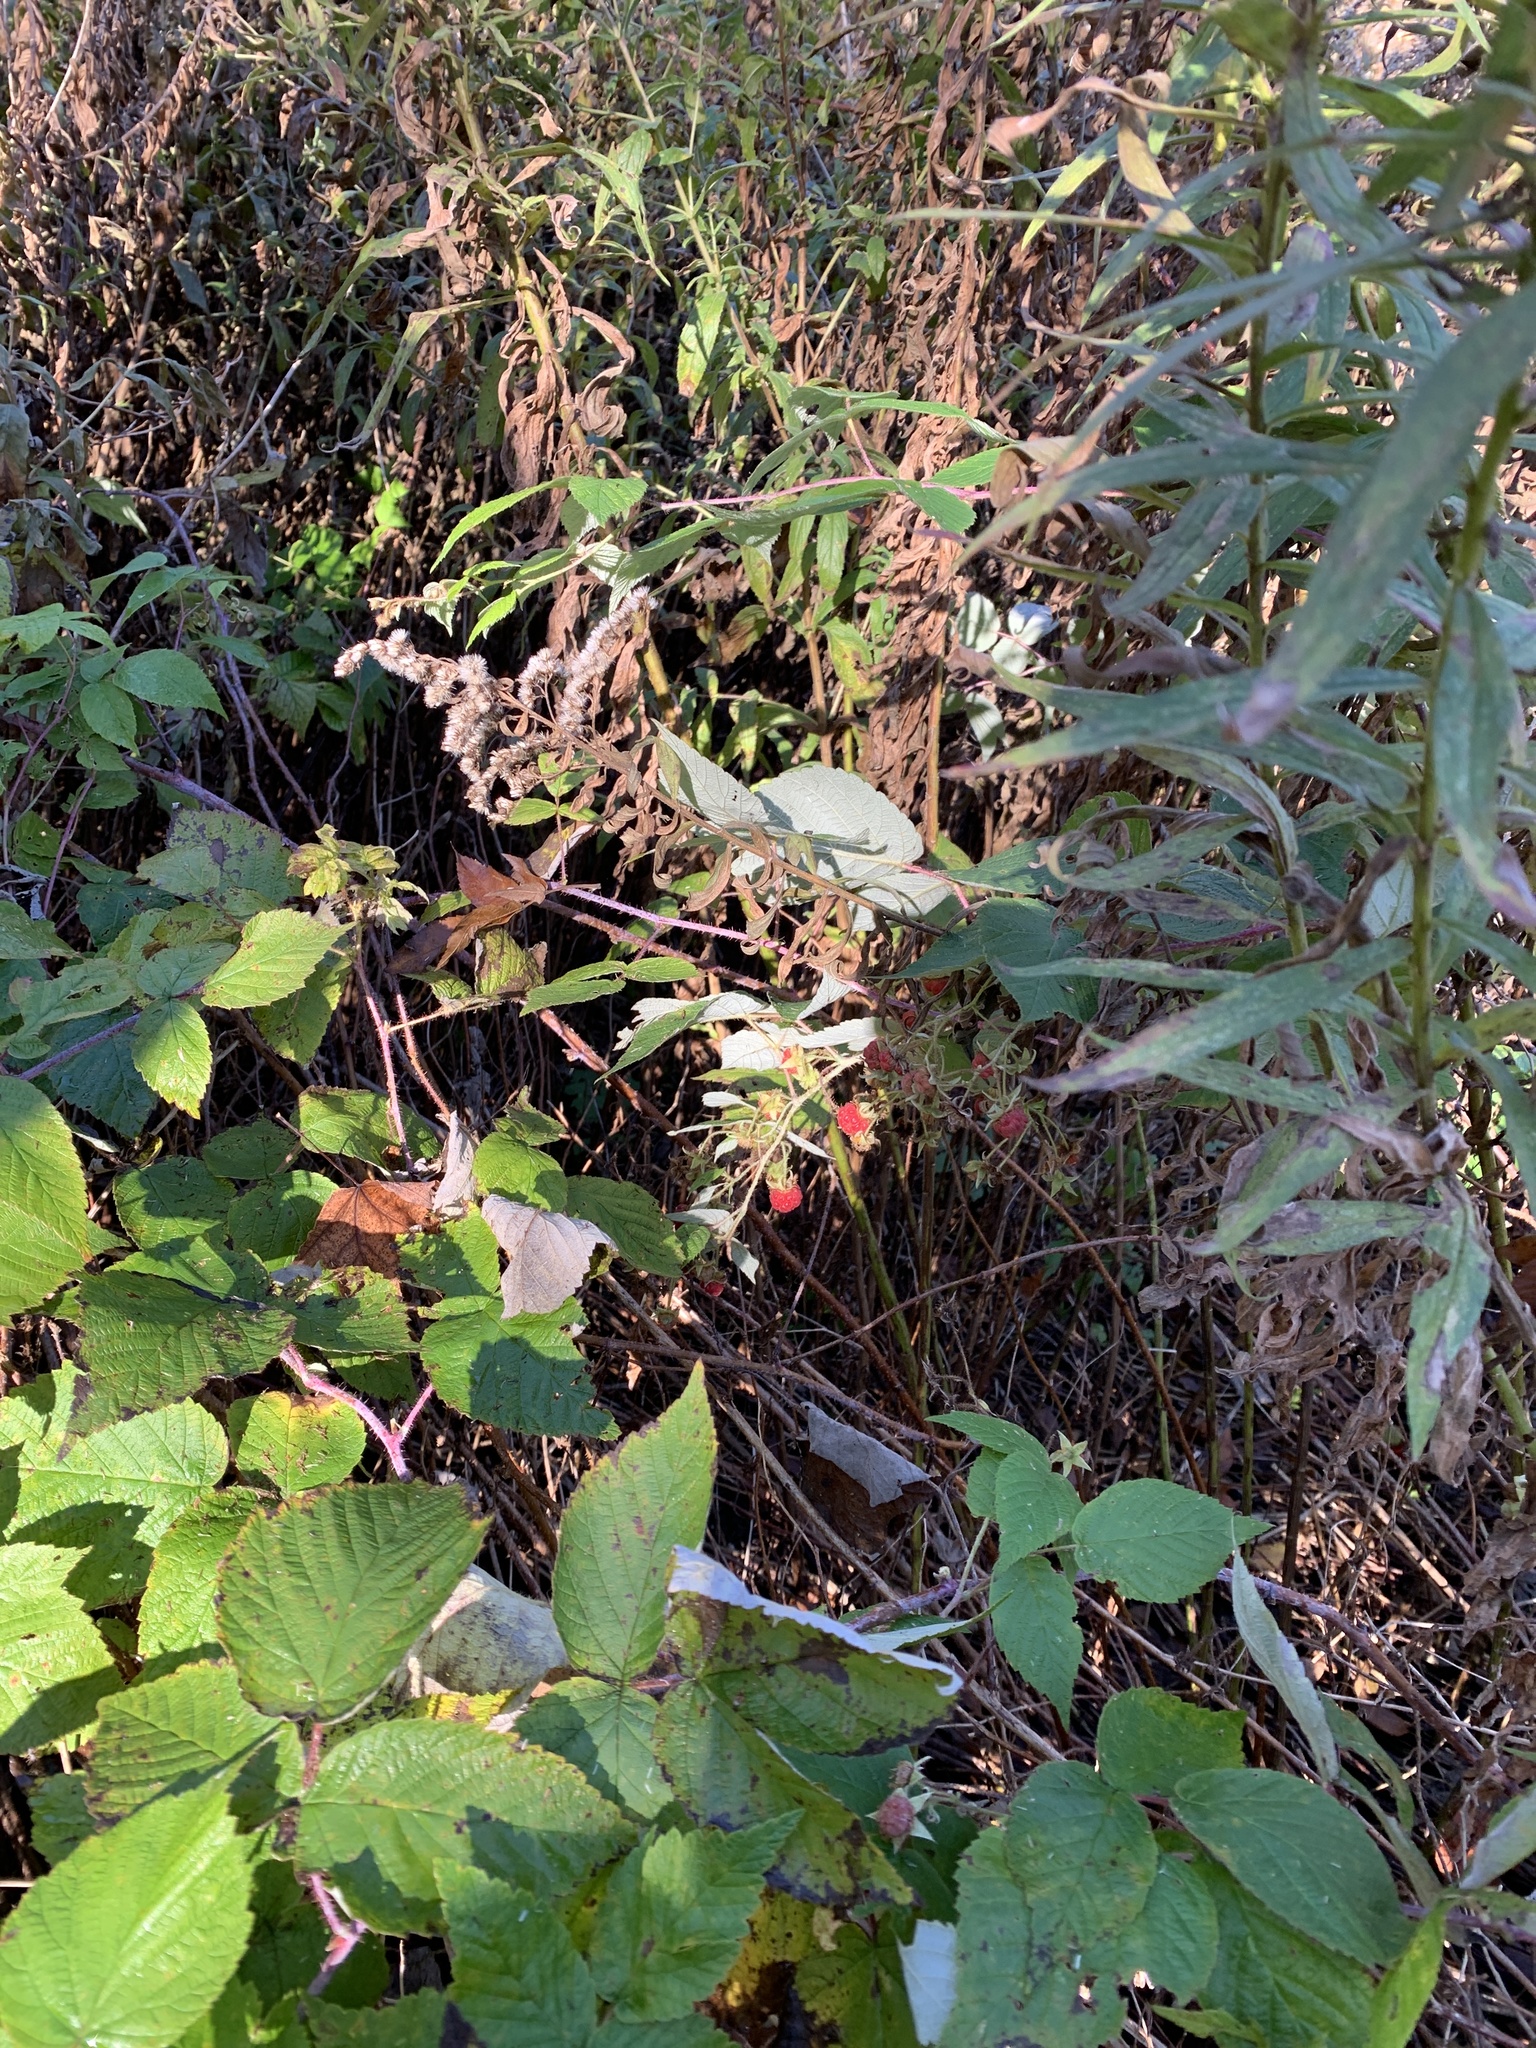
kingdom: Plantae
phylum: Tracheophyta
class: Magnoliopsida
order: Rosales
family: Rosaceae
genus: Rubus
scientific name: Rubus idaeus
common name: Raspberry
